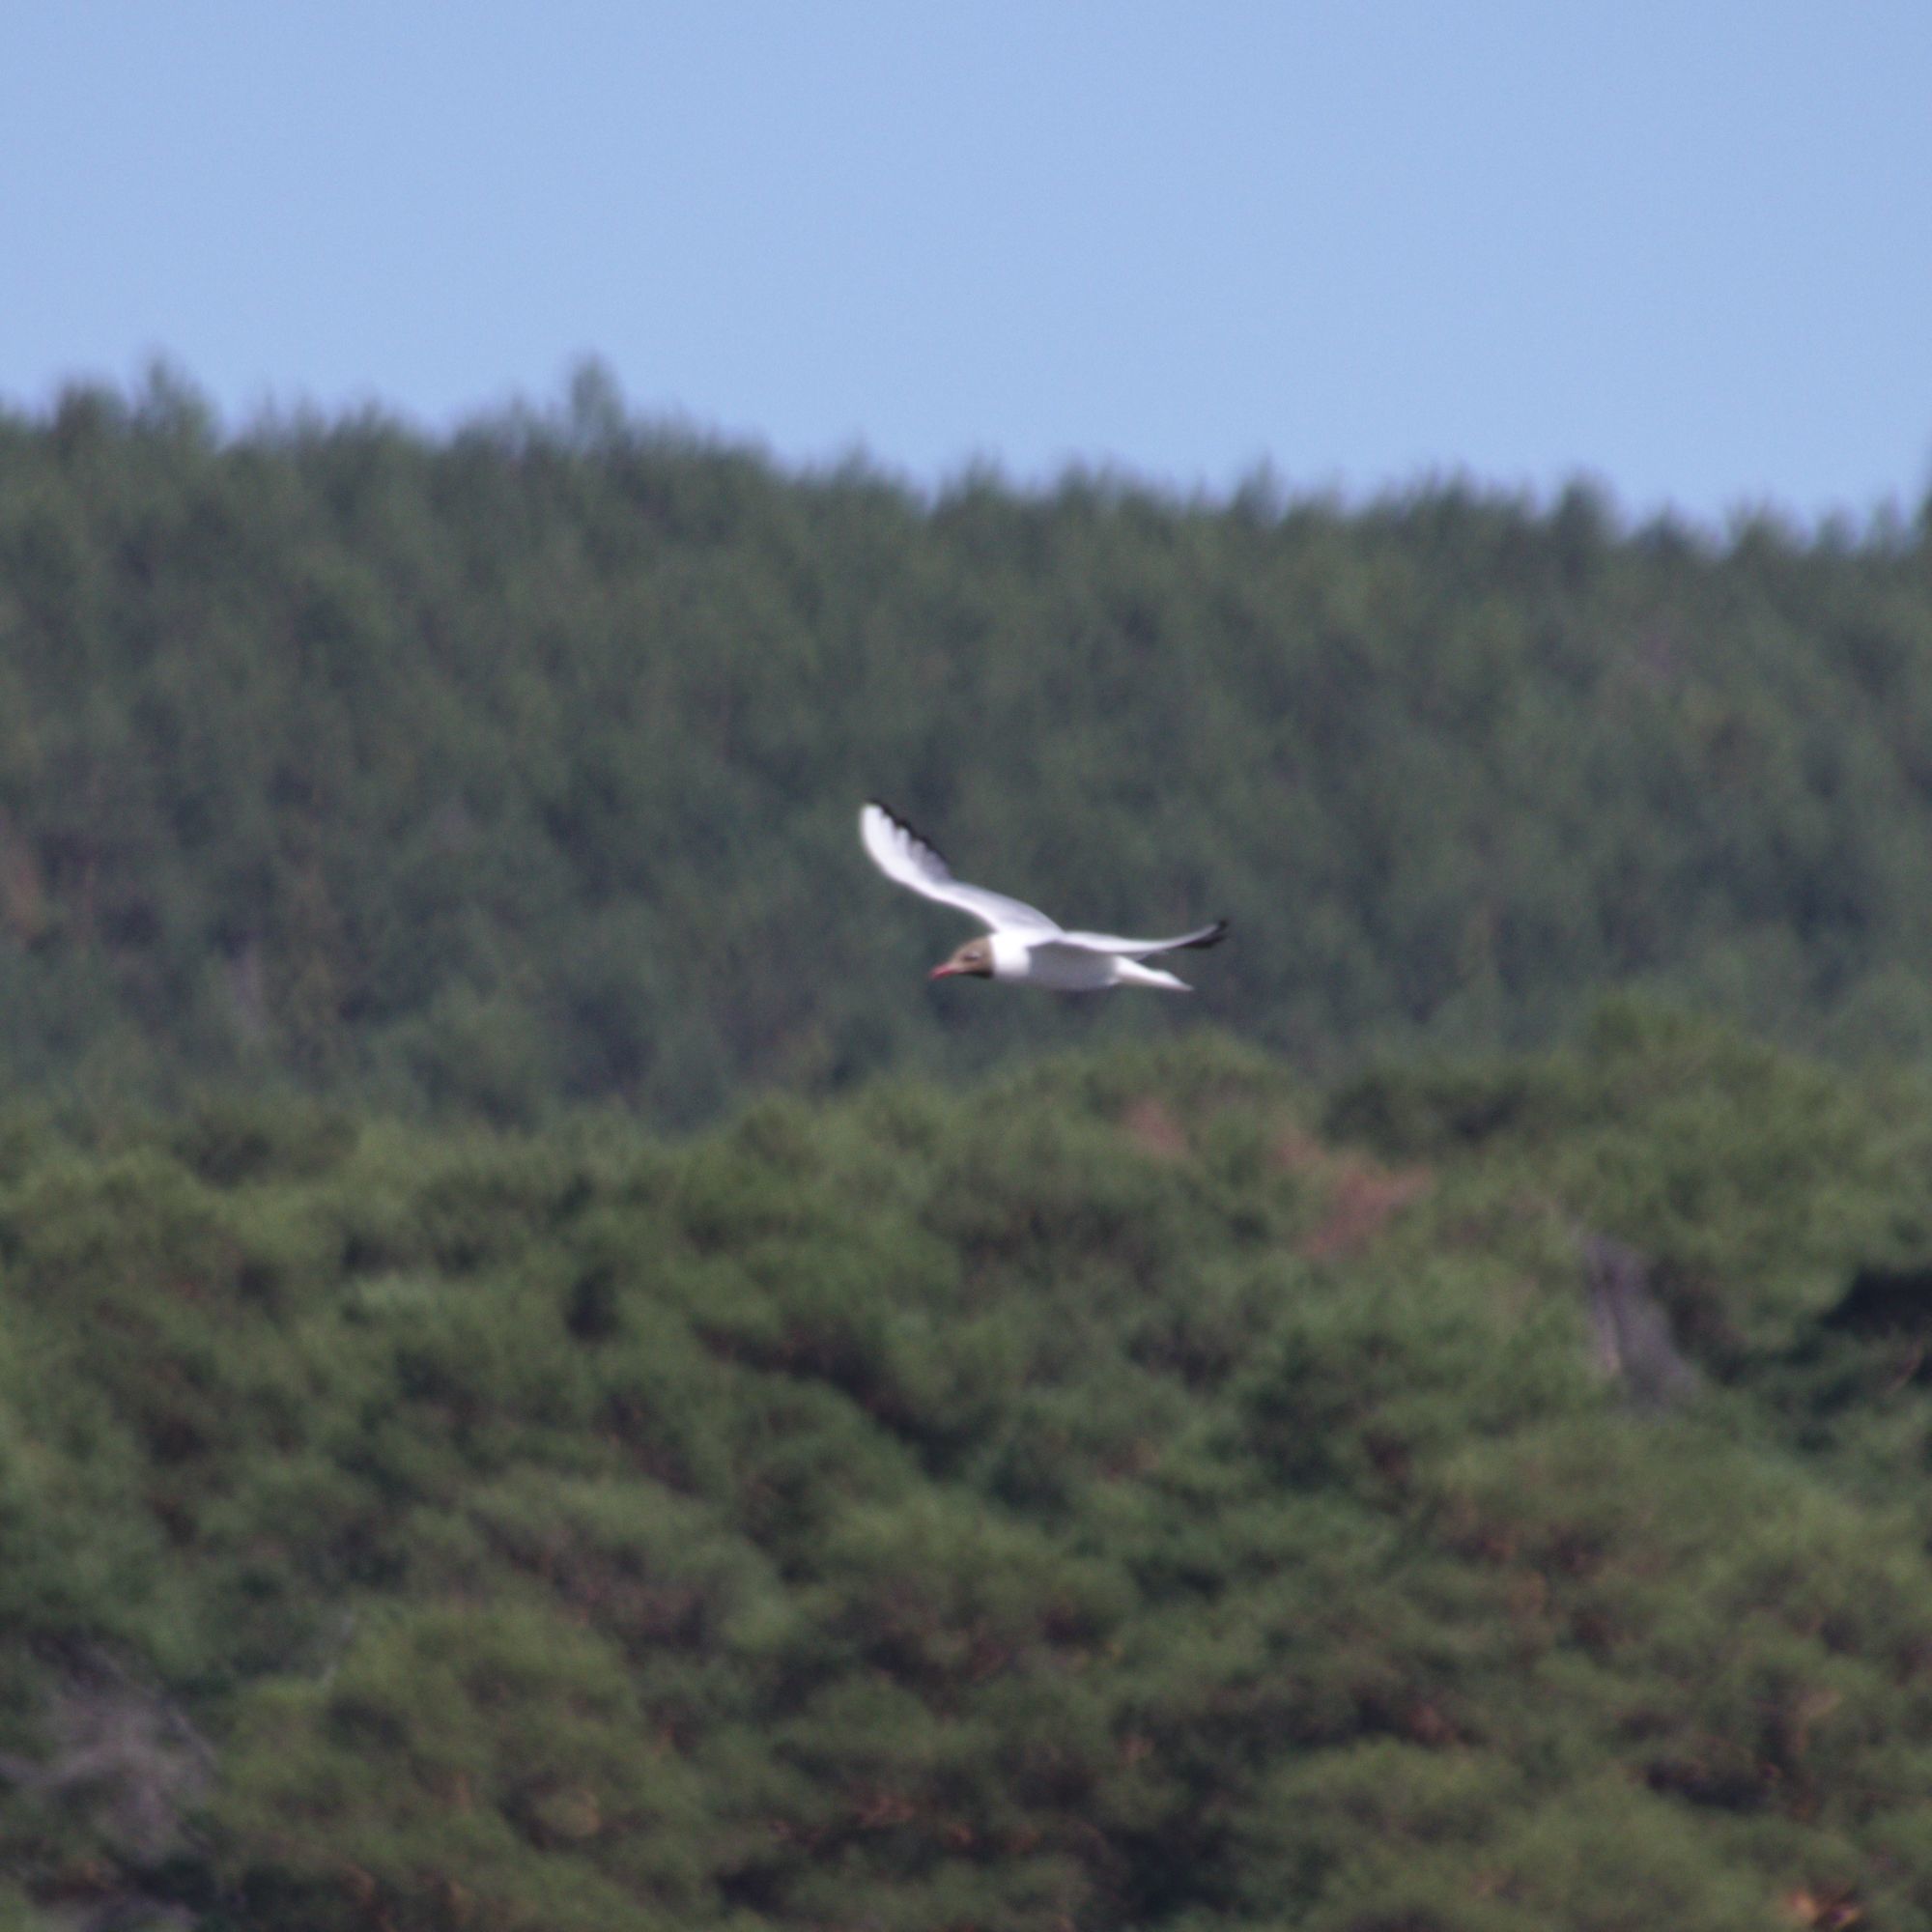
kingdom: Animalia
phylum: Chordata
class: Aves
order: Charadriiformes
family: Laridae
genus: Chroicocephalus
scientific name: Chroicocephalus ridibundus
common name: Black-headed gull
